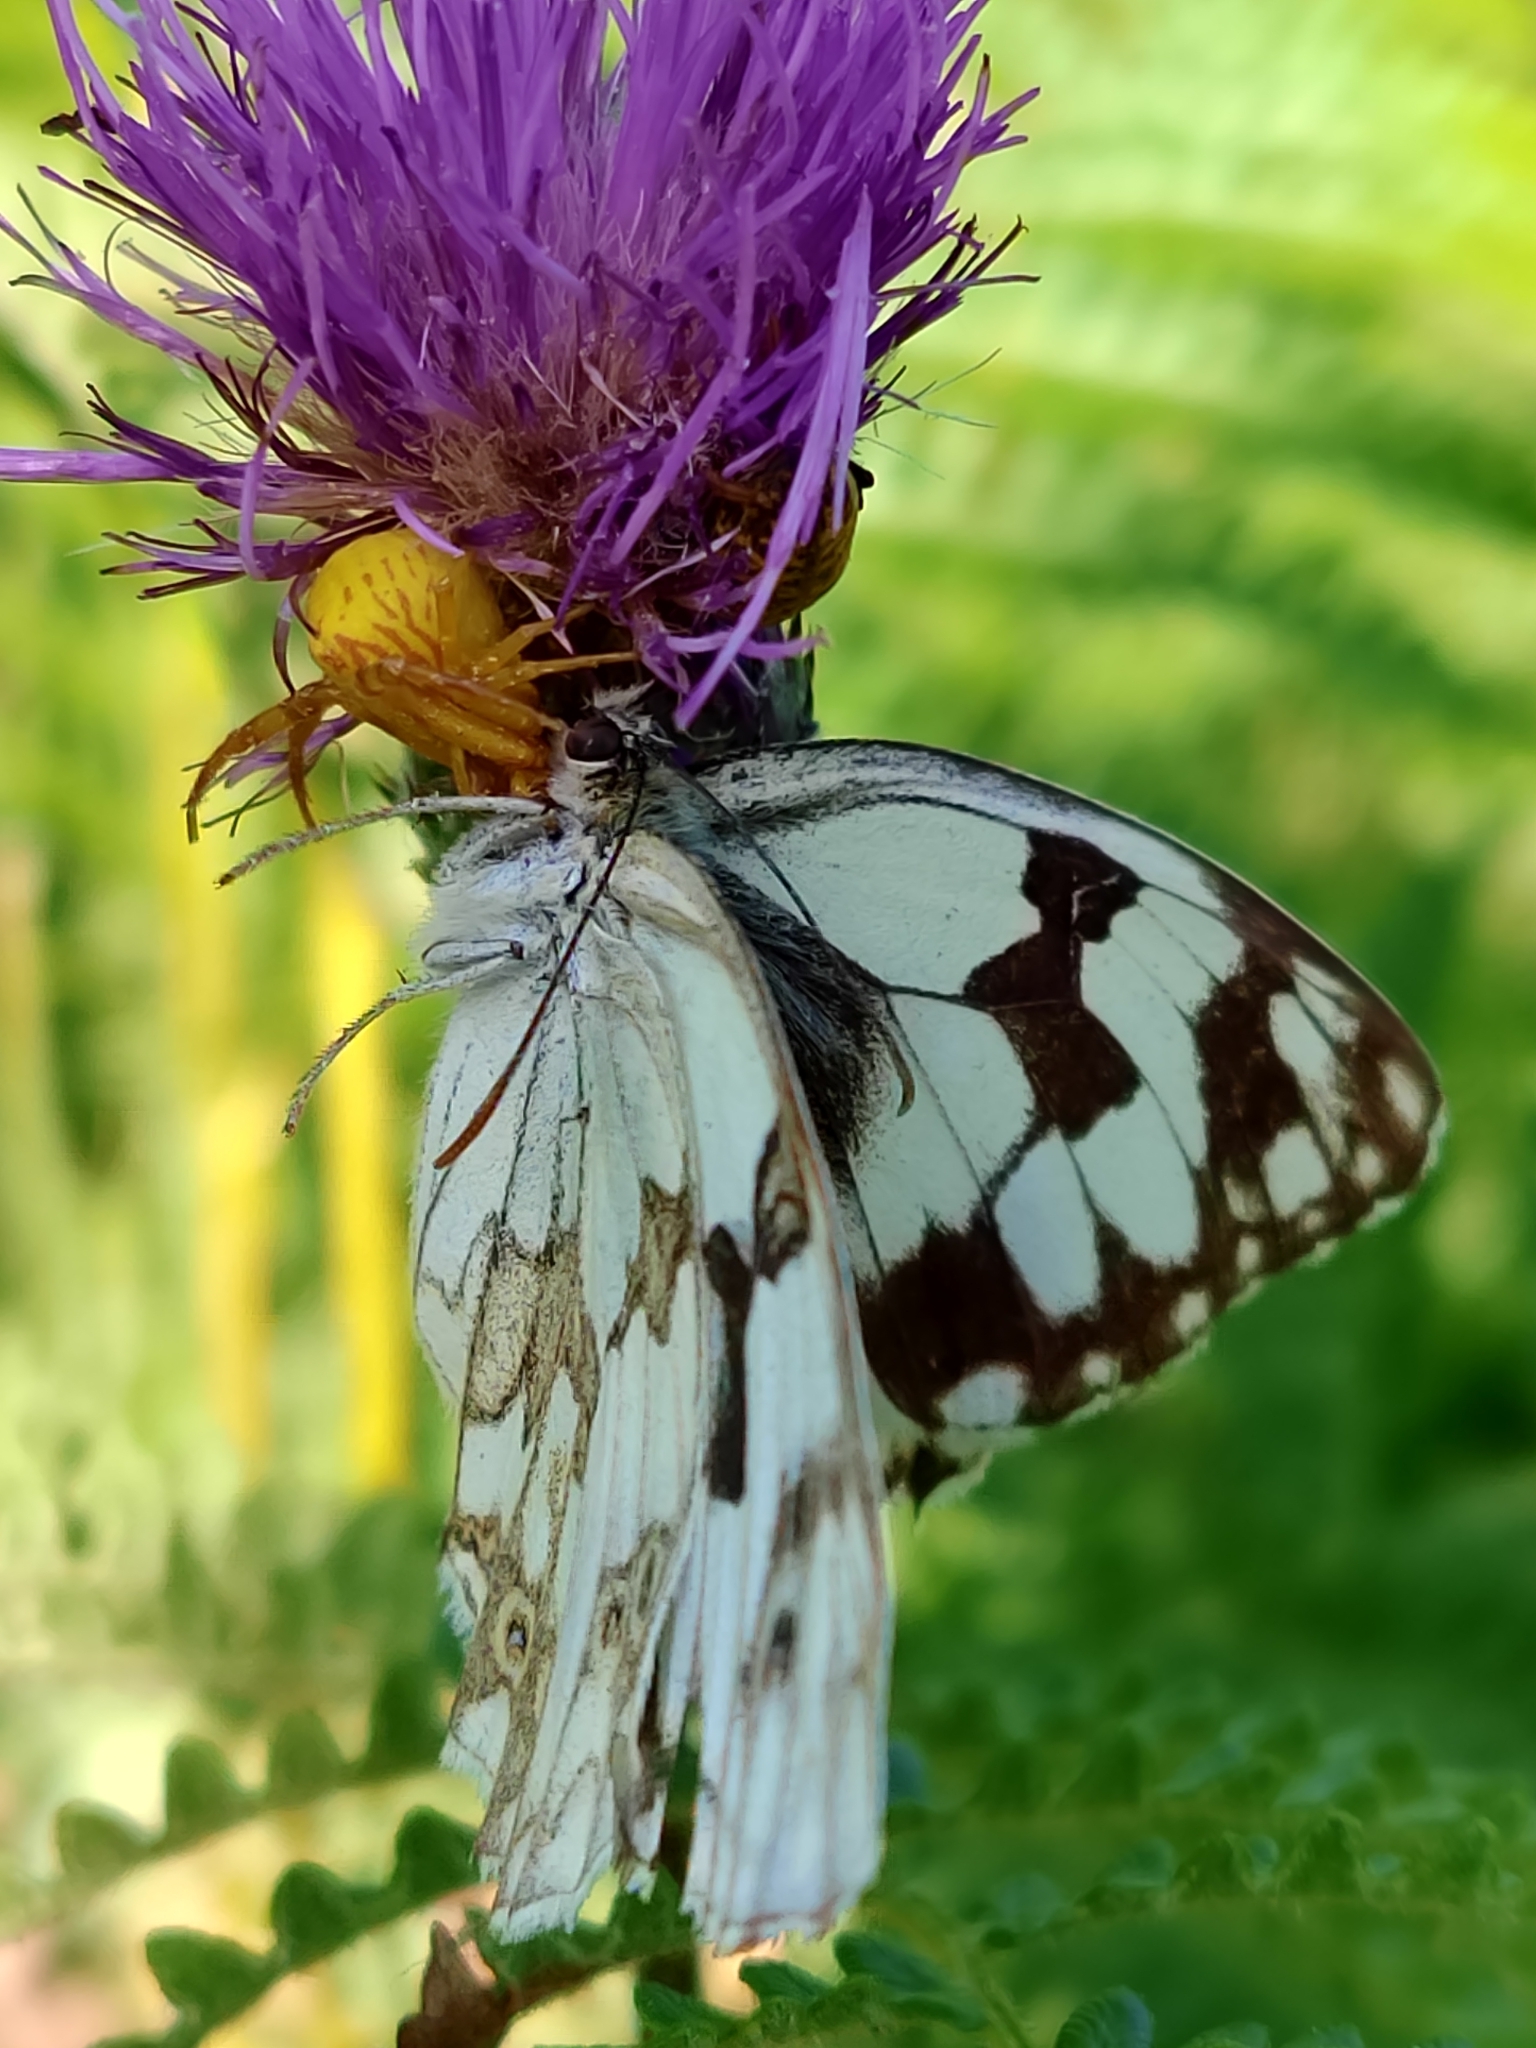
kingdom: Animalia
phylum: Arthropoda
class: Insecta
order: Lepidoptera
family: Nymphalidae
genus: Melanargia
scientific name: Melanargia lachesis
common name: Iberian marbled white
